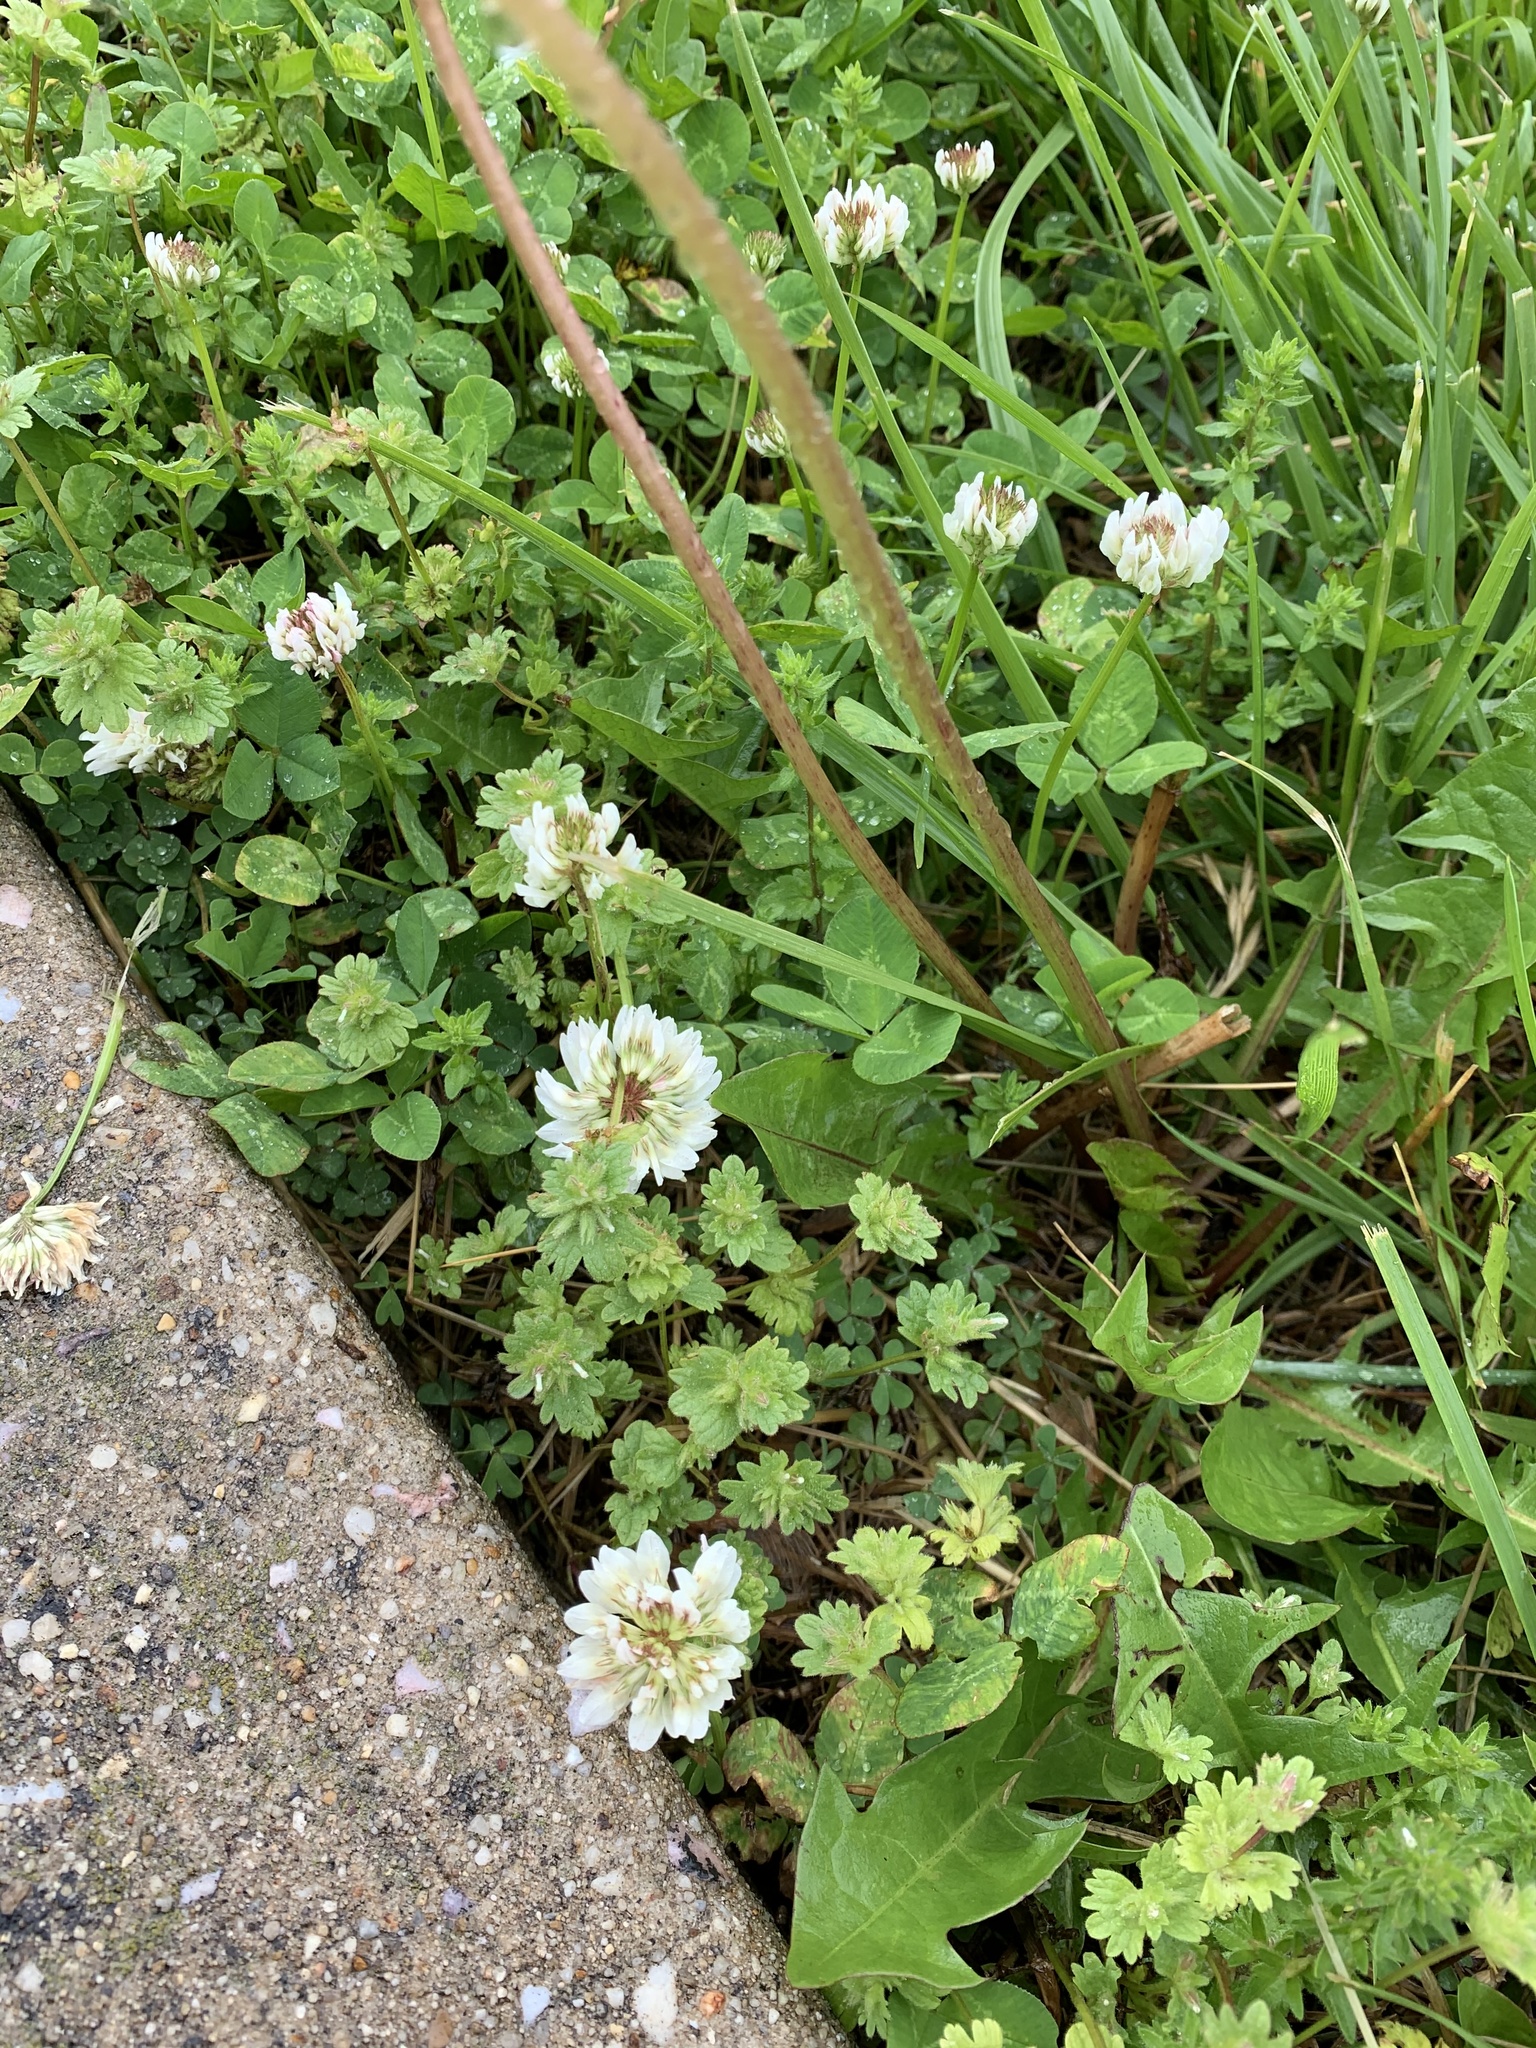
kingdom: Plantae
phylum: Tracheophyta
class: Magnoliopsida
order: Fabales
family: Fabaceae
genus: Trifolium
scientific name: Trifolium repens
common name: White clover
